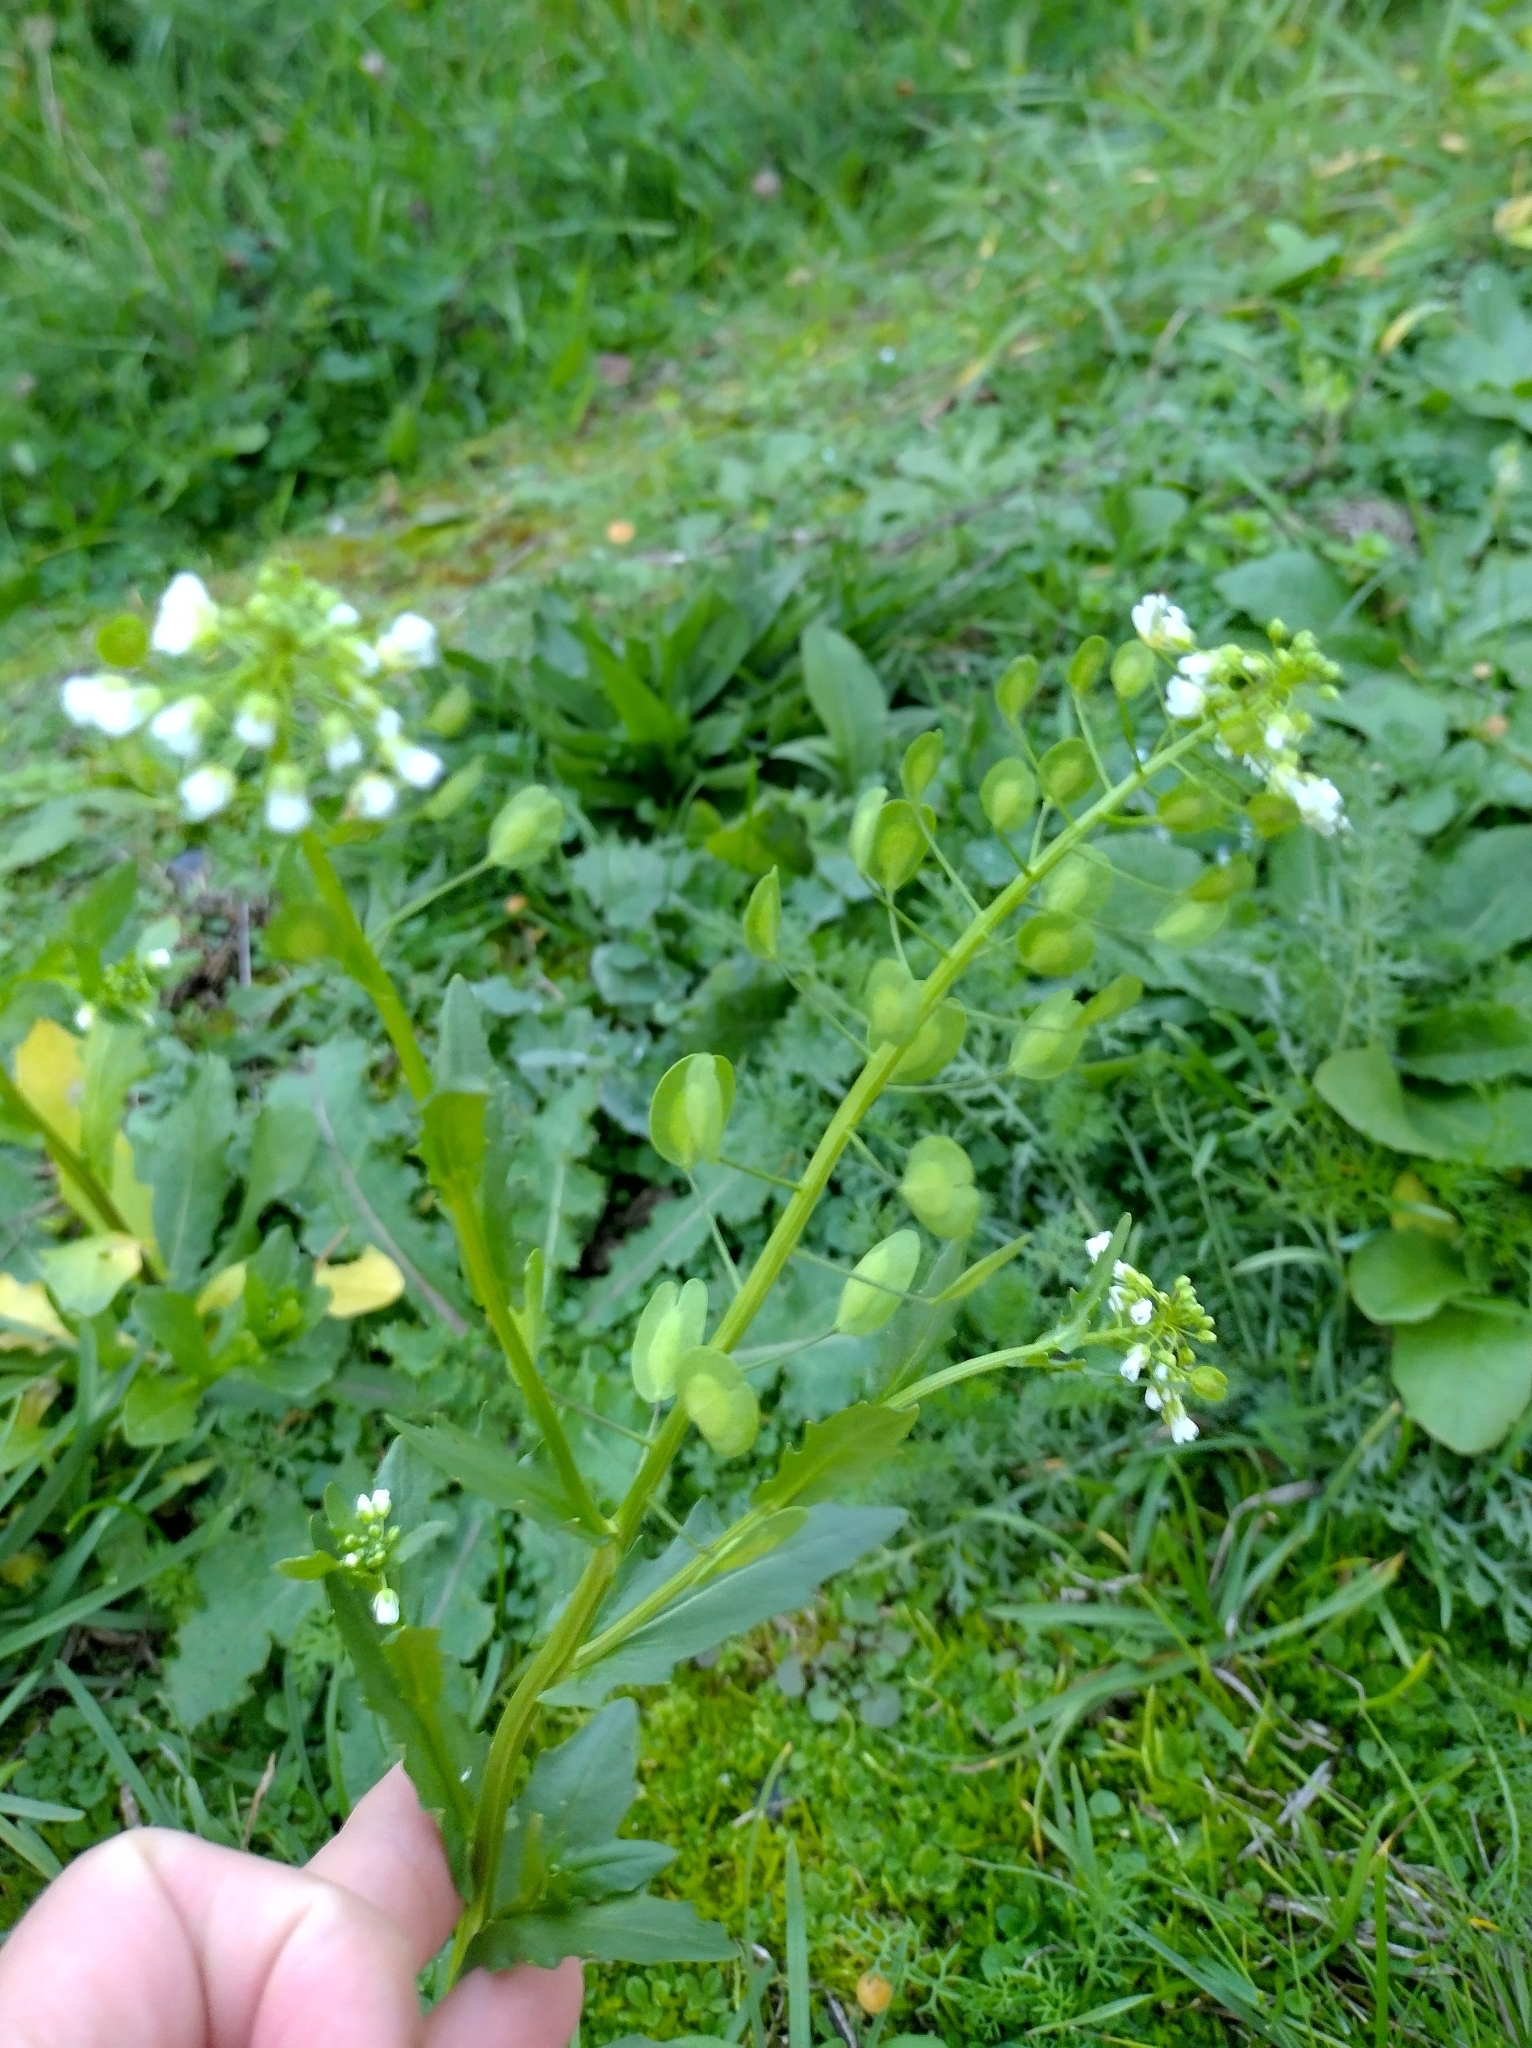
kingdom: Plantae
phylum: Tracheophyta
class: Magnoliopsida
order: Brassicales
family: Brassicaceae
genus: Thlaspi
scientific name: Thlaspi arvense
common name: Field pennycress
